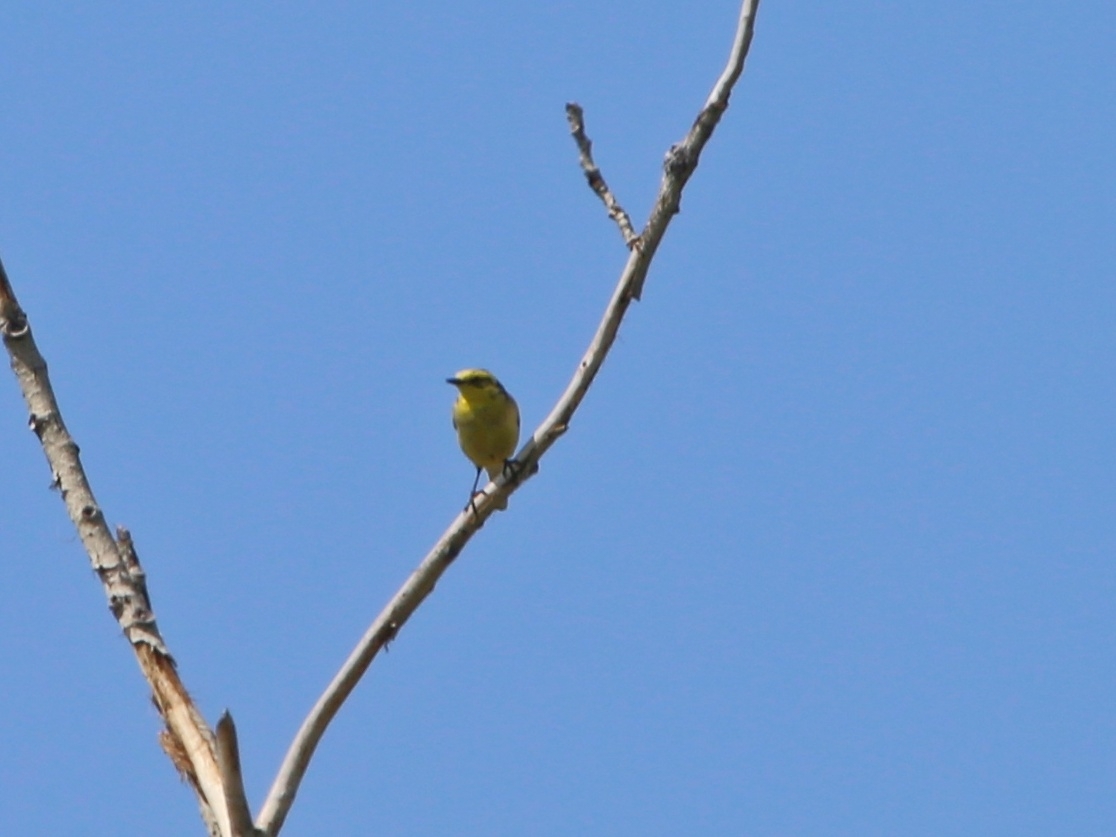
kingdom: Animalia
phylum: Chordata
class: Aves
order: Passeriformes
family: Motacillidae
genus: Motacilla
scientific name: Motacilla citreola
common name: Citrine wagtail
